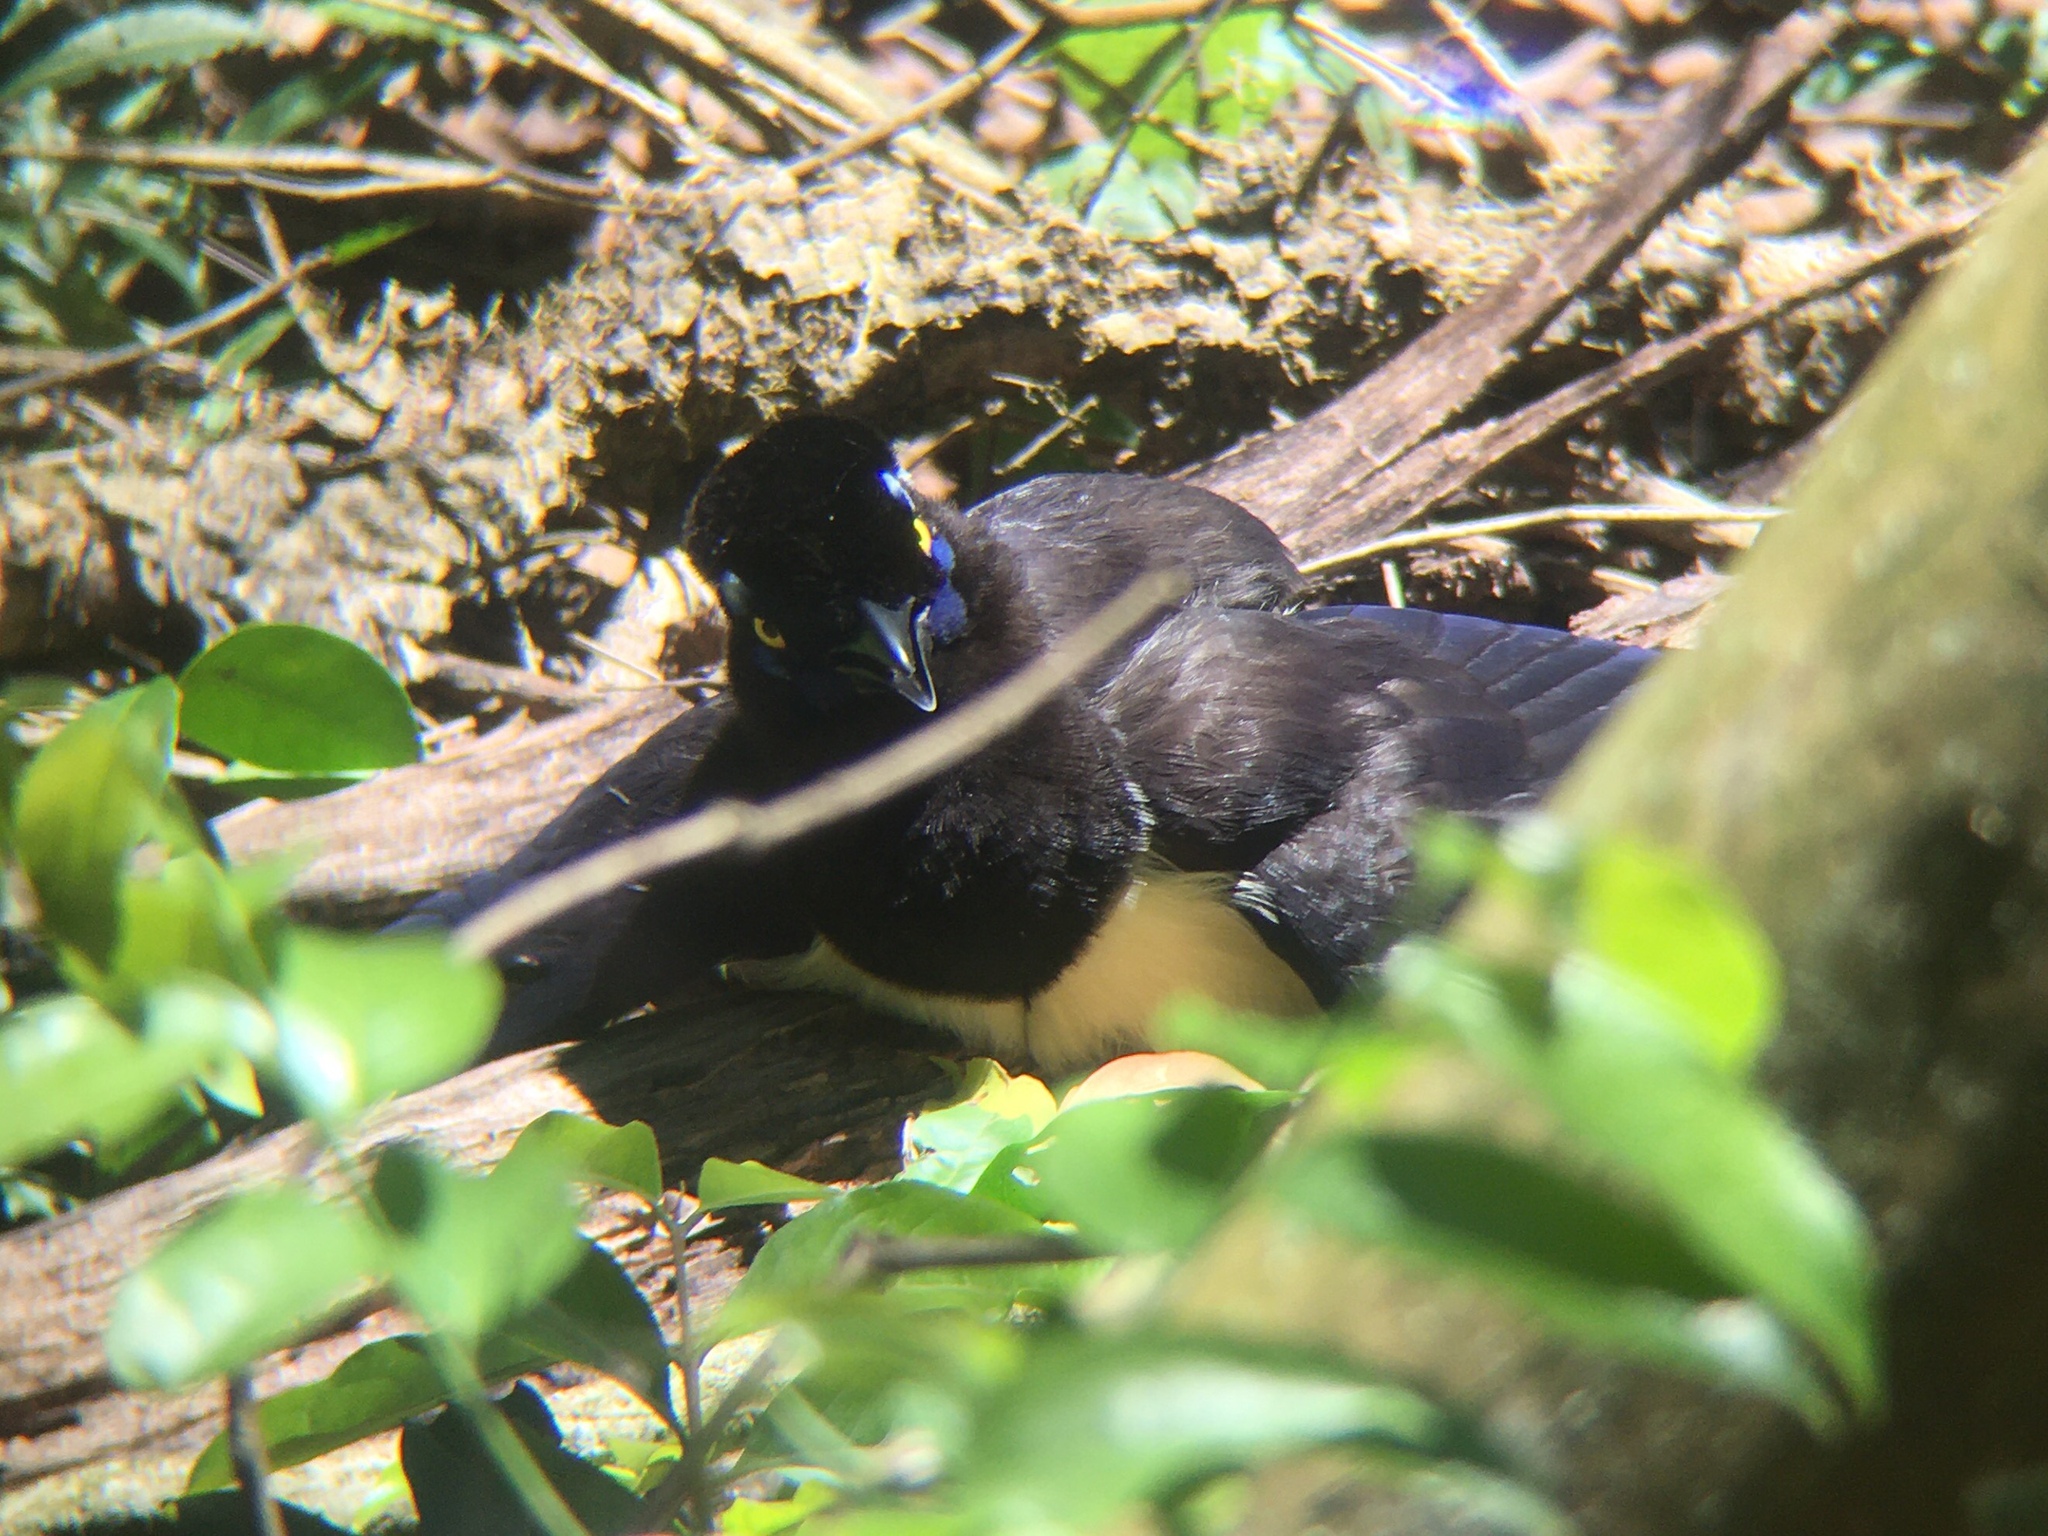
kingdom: Animalia
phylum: Chordata
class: Aves
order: Passeriformes
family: Corvidae
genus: Cyanocorax
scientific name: Cyanocorax chrysops
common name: Plush-crested jay
